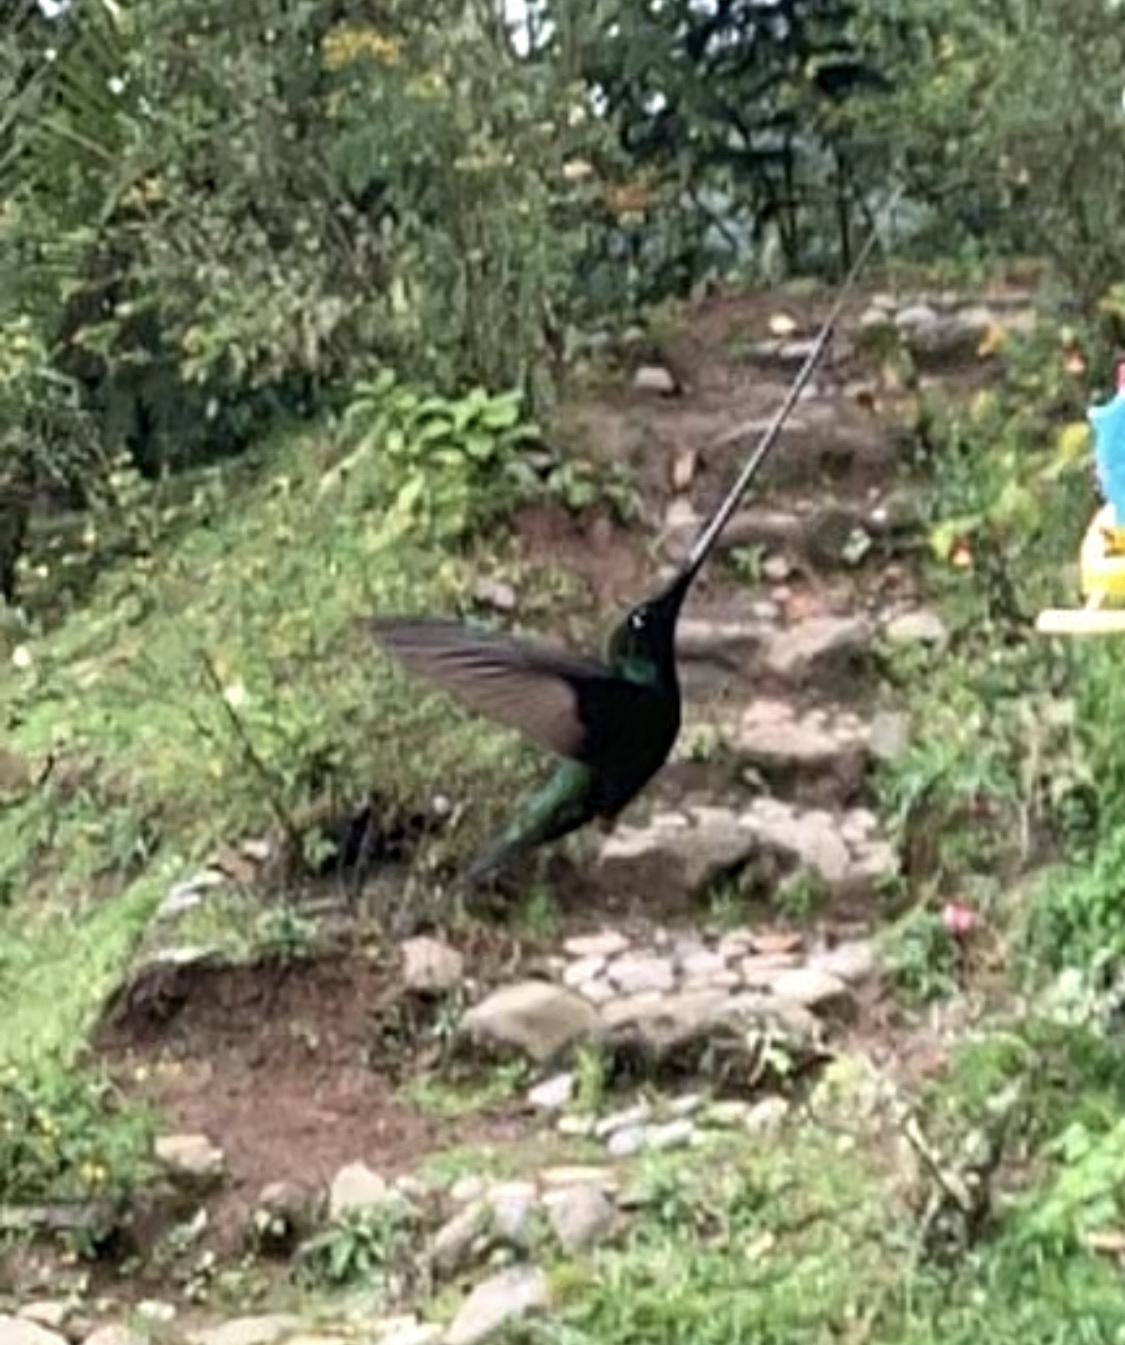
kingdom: Animalia
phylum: Chordata
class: Aves
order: Apodiformes
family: Trochilidae
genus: Ensifera
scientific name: Ensifera ensifera
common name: Sword-billed hummingbird
